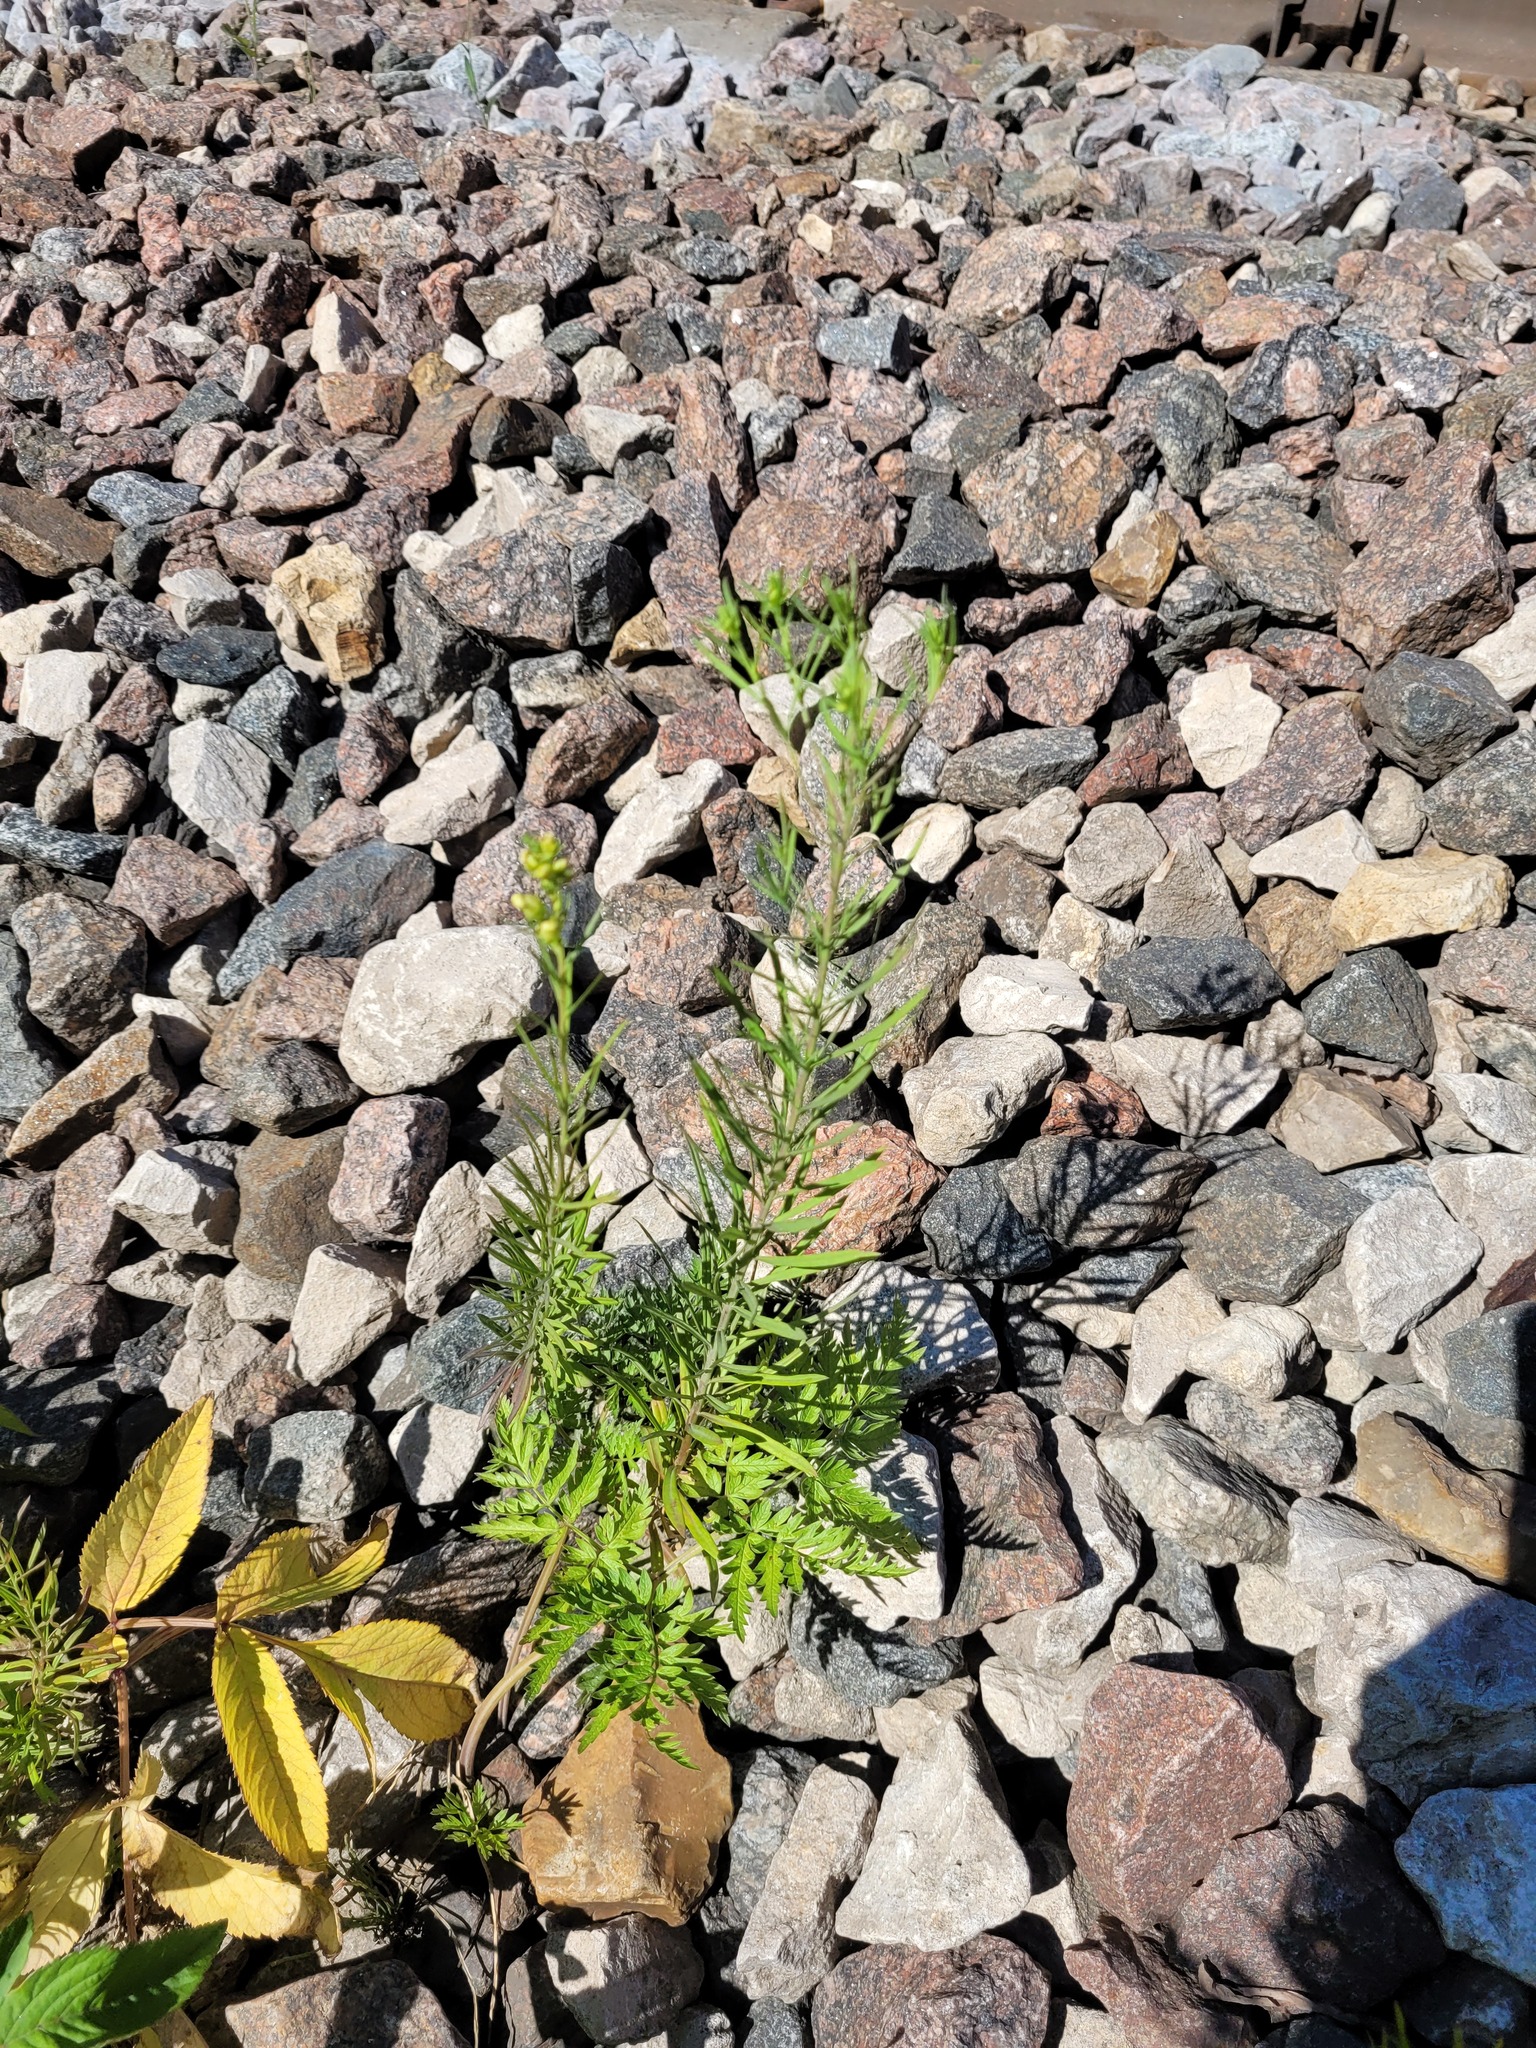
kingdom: Plantae
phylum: Tracheophyta
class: Magnoliopsida
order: Lamiales
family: Plantaginaceae
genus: Linaria
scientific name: Linaria vulgaris
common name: Butter and eggs
